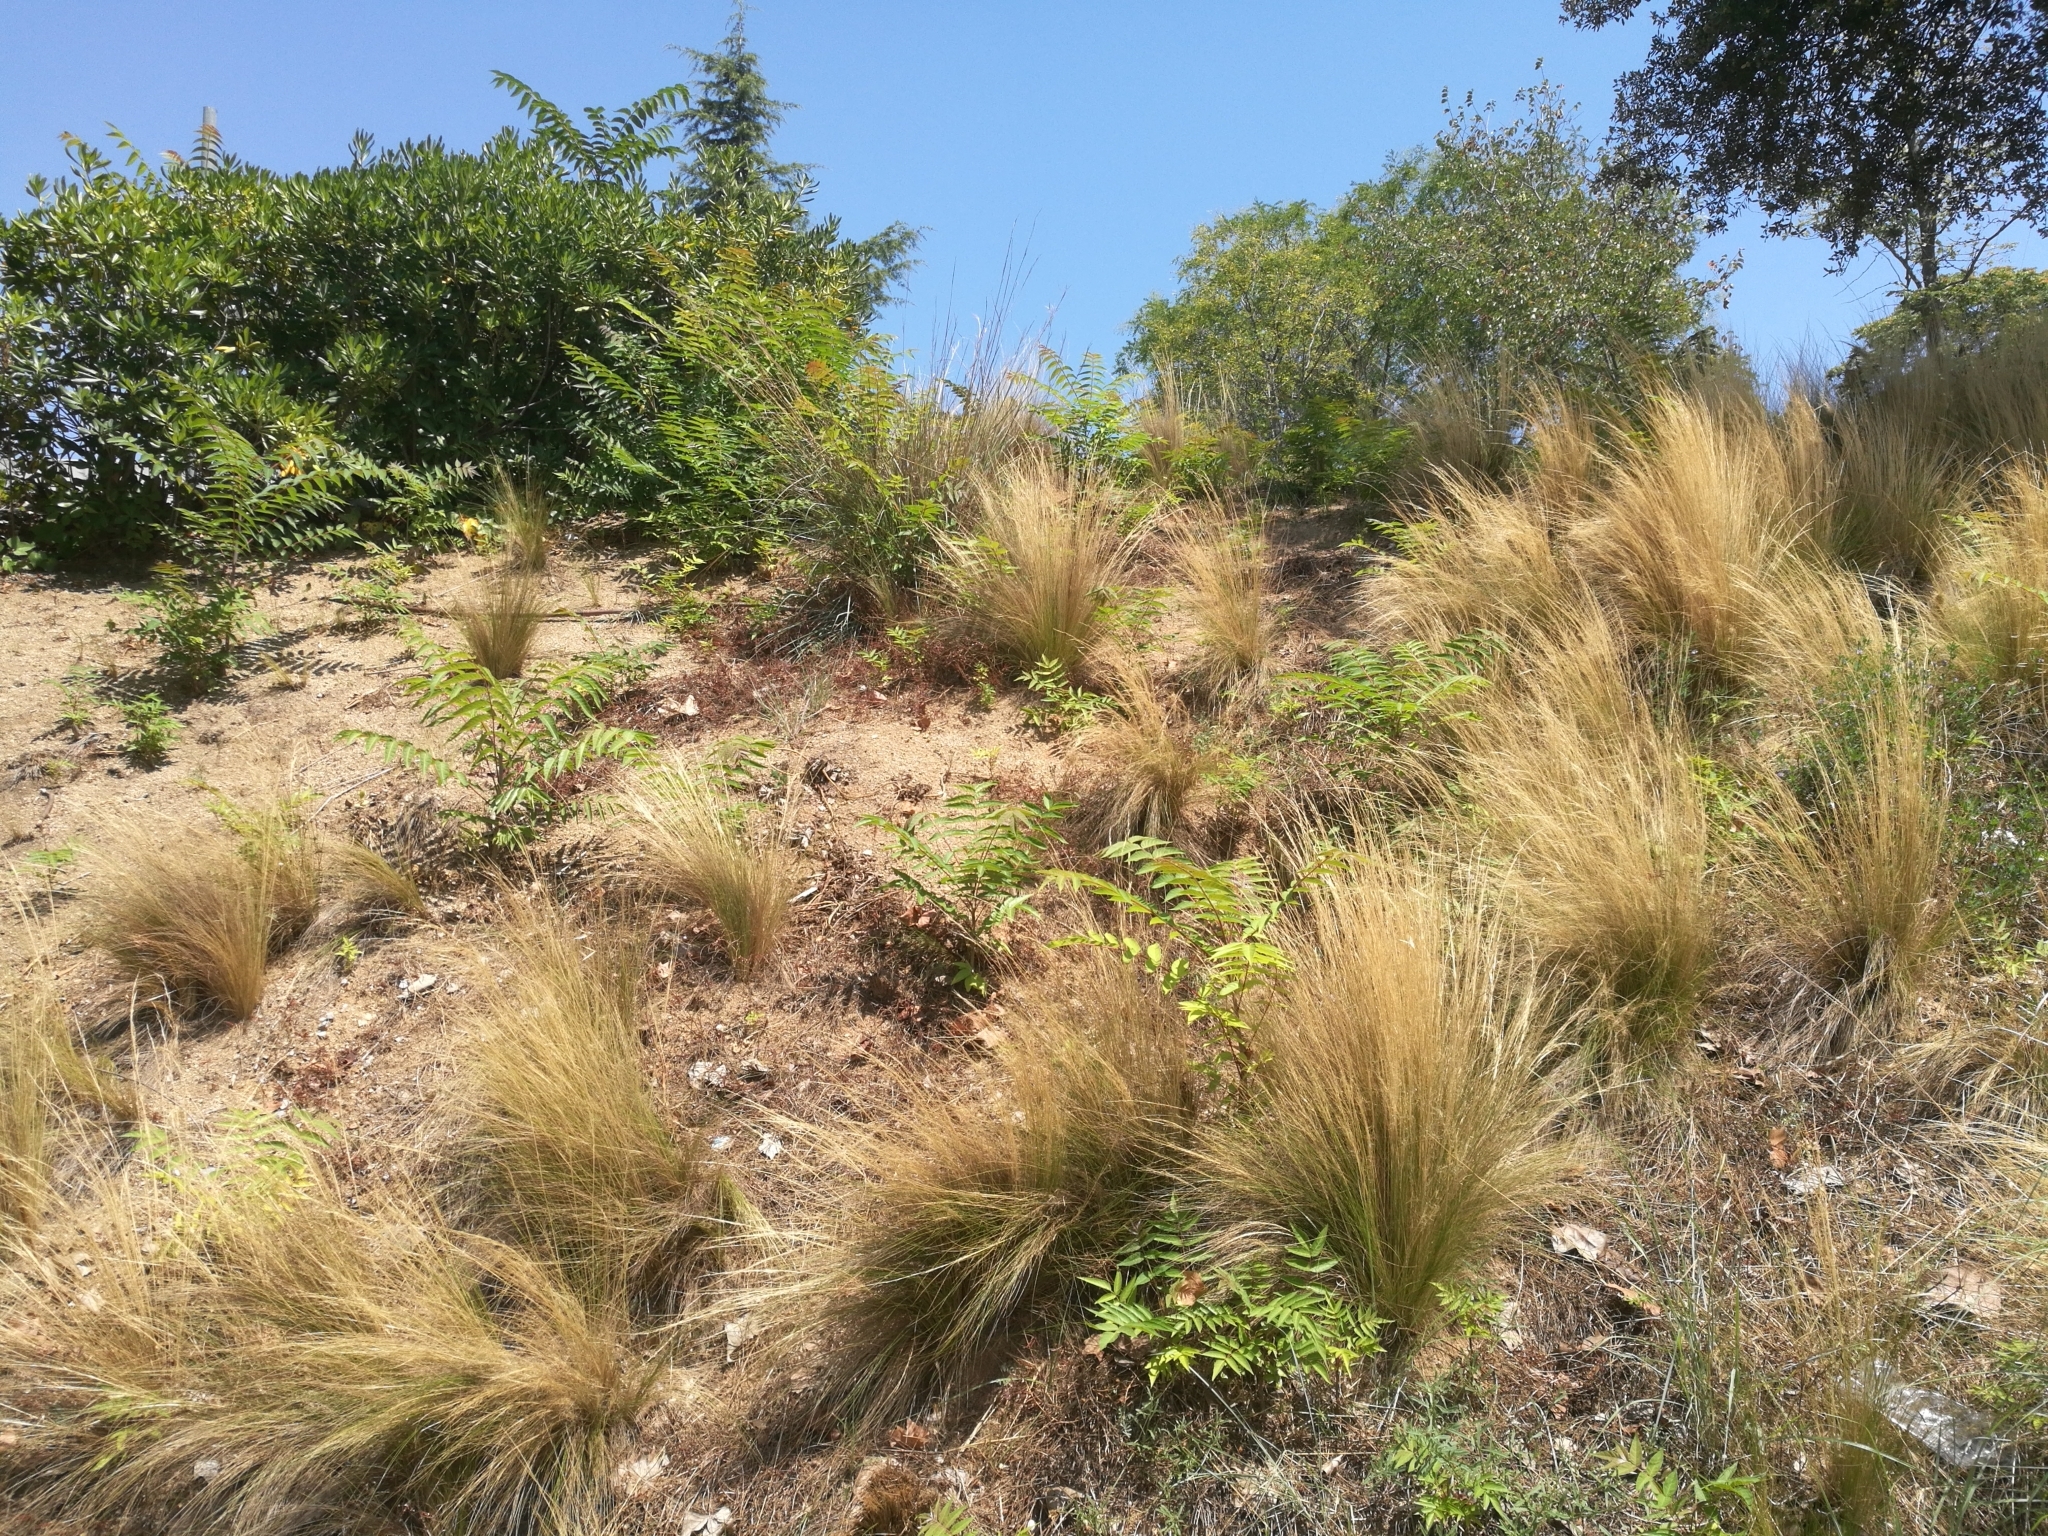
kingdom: Plantae
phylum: Tracheophyta
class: Magnoliopsida
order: Sapindales
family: Simaroubaceae
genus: Ailanthus
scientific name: Ailanthus altissima
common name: Tree-of-heaven
